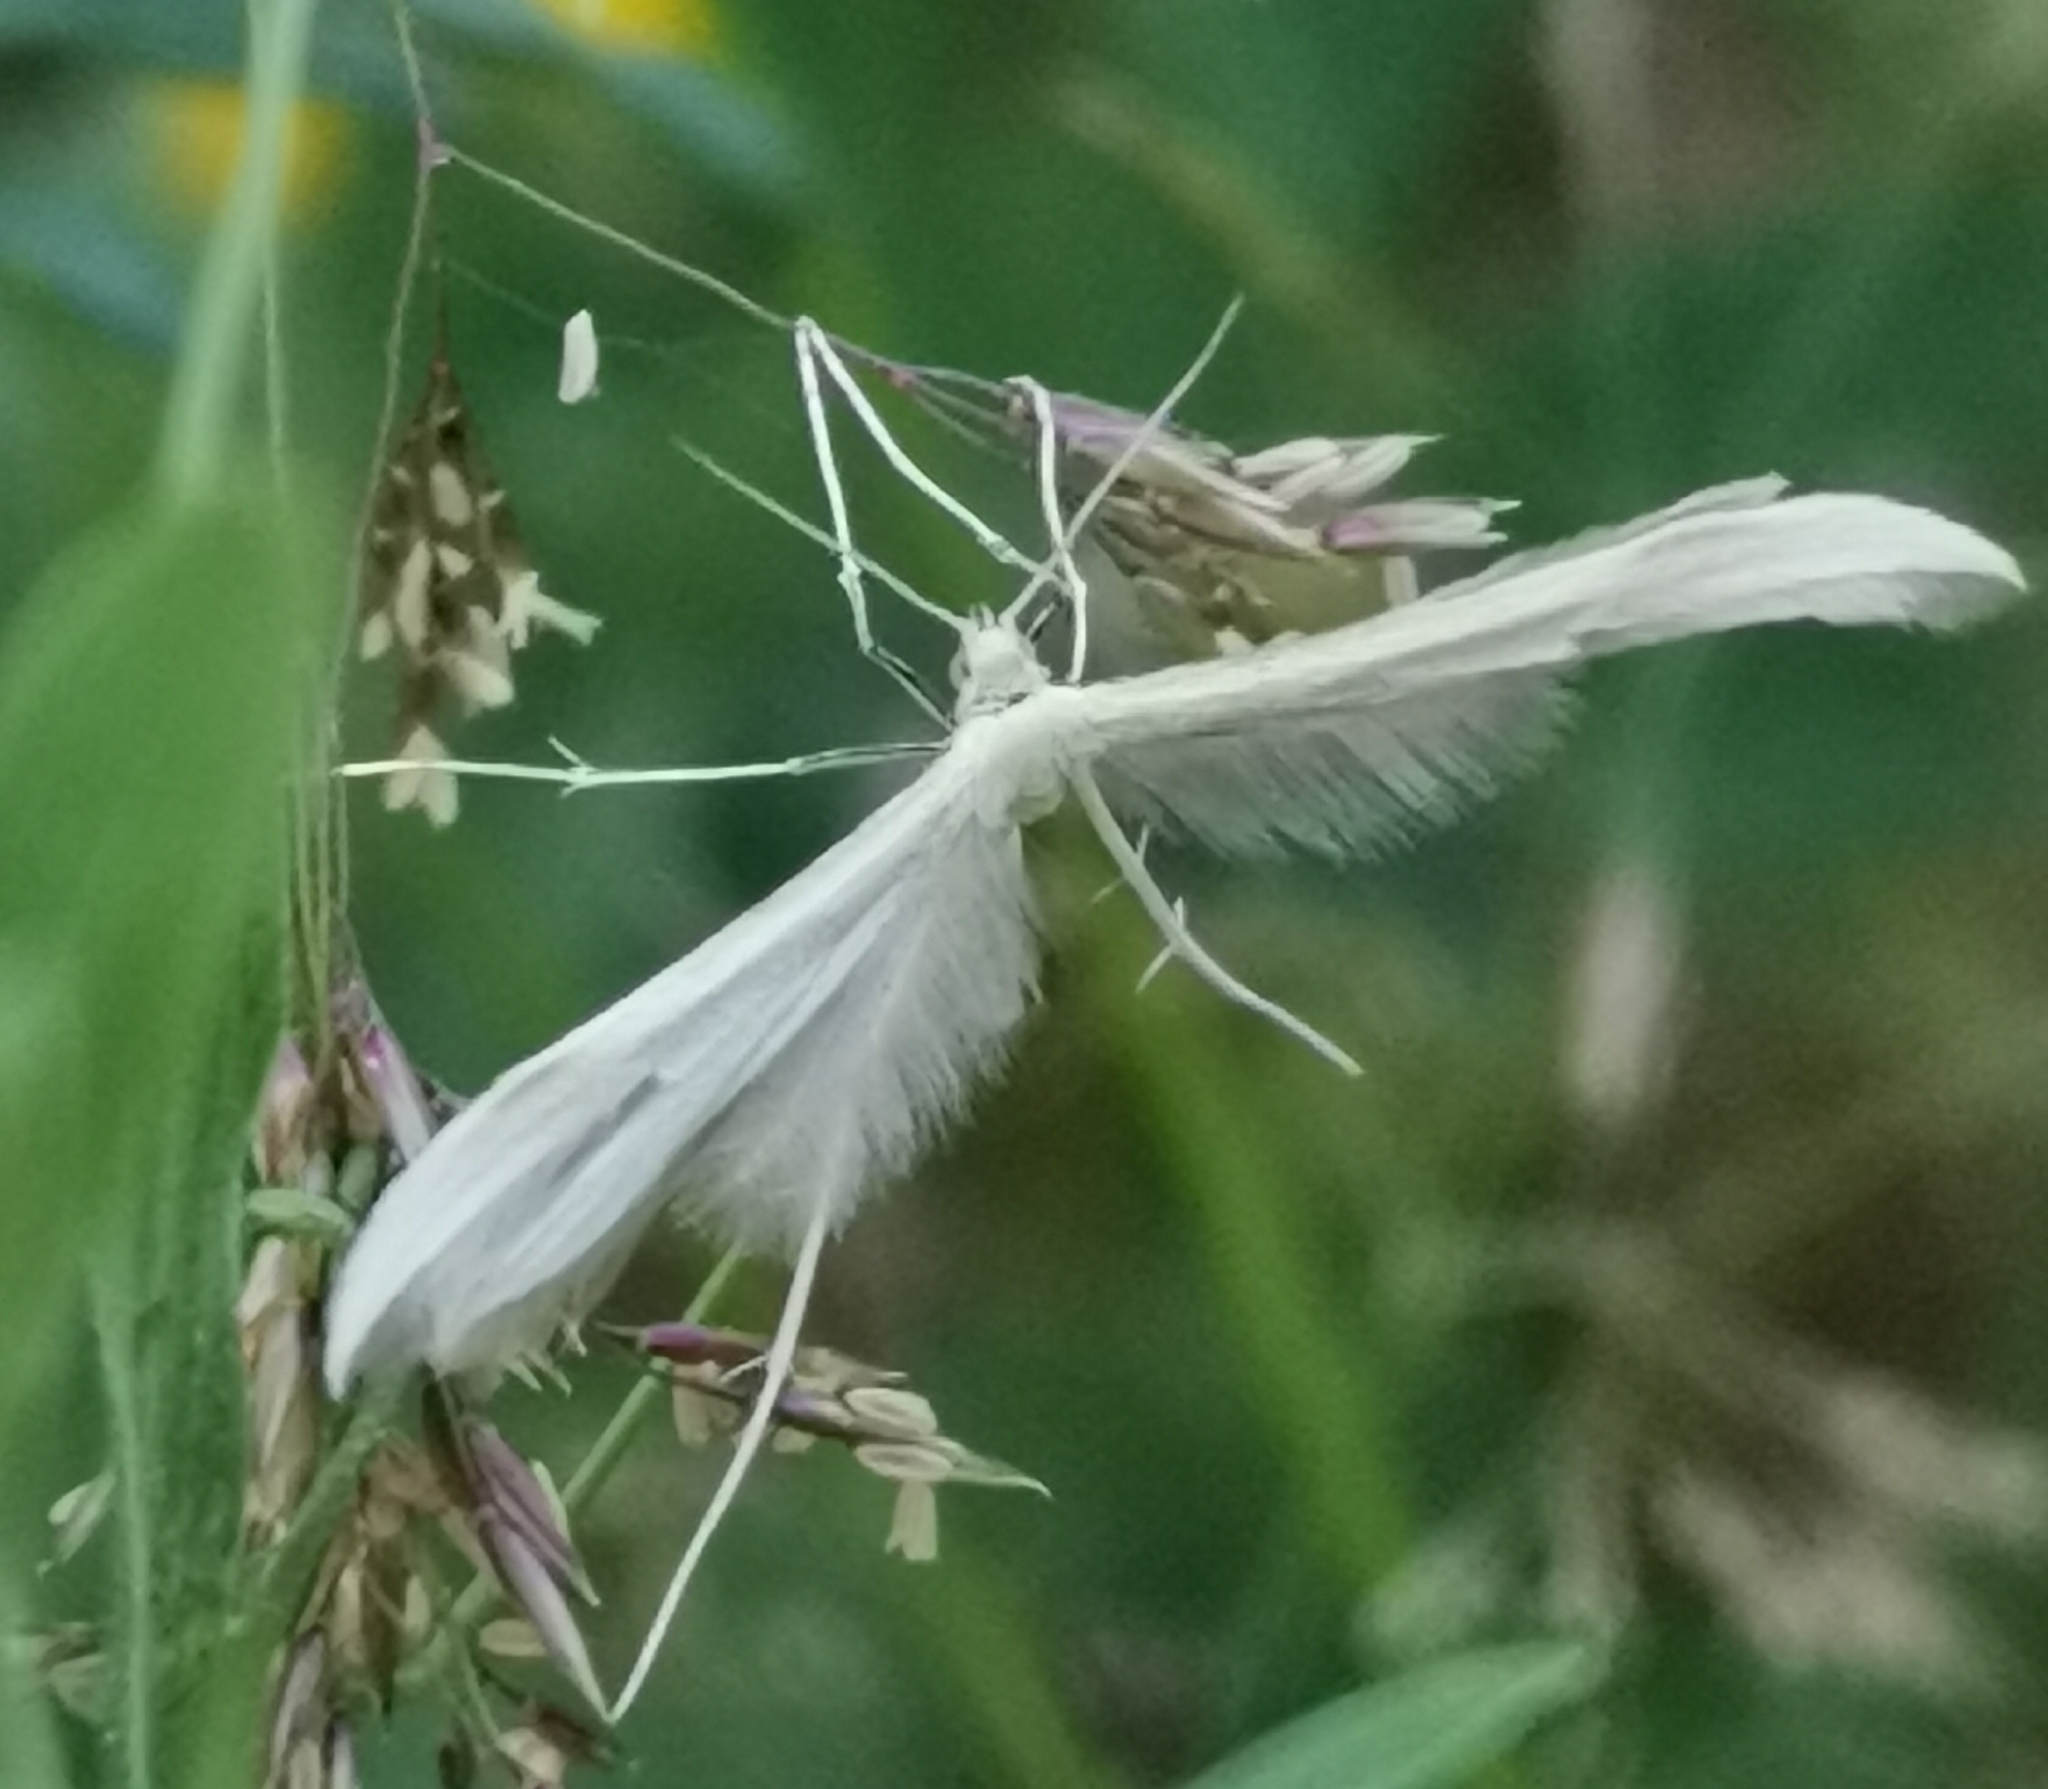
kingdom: Animalia
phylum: Arthropoda
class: Insecta
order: Lepidoptera
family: Pterophoridae
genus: Pterophorus
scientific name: Pterophorus pentadactyla
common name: White plume moth
